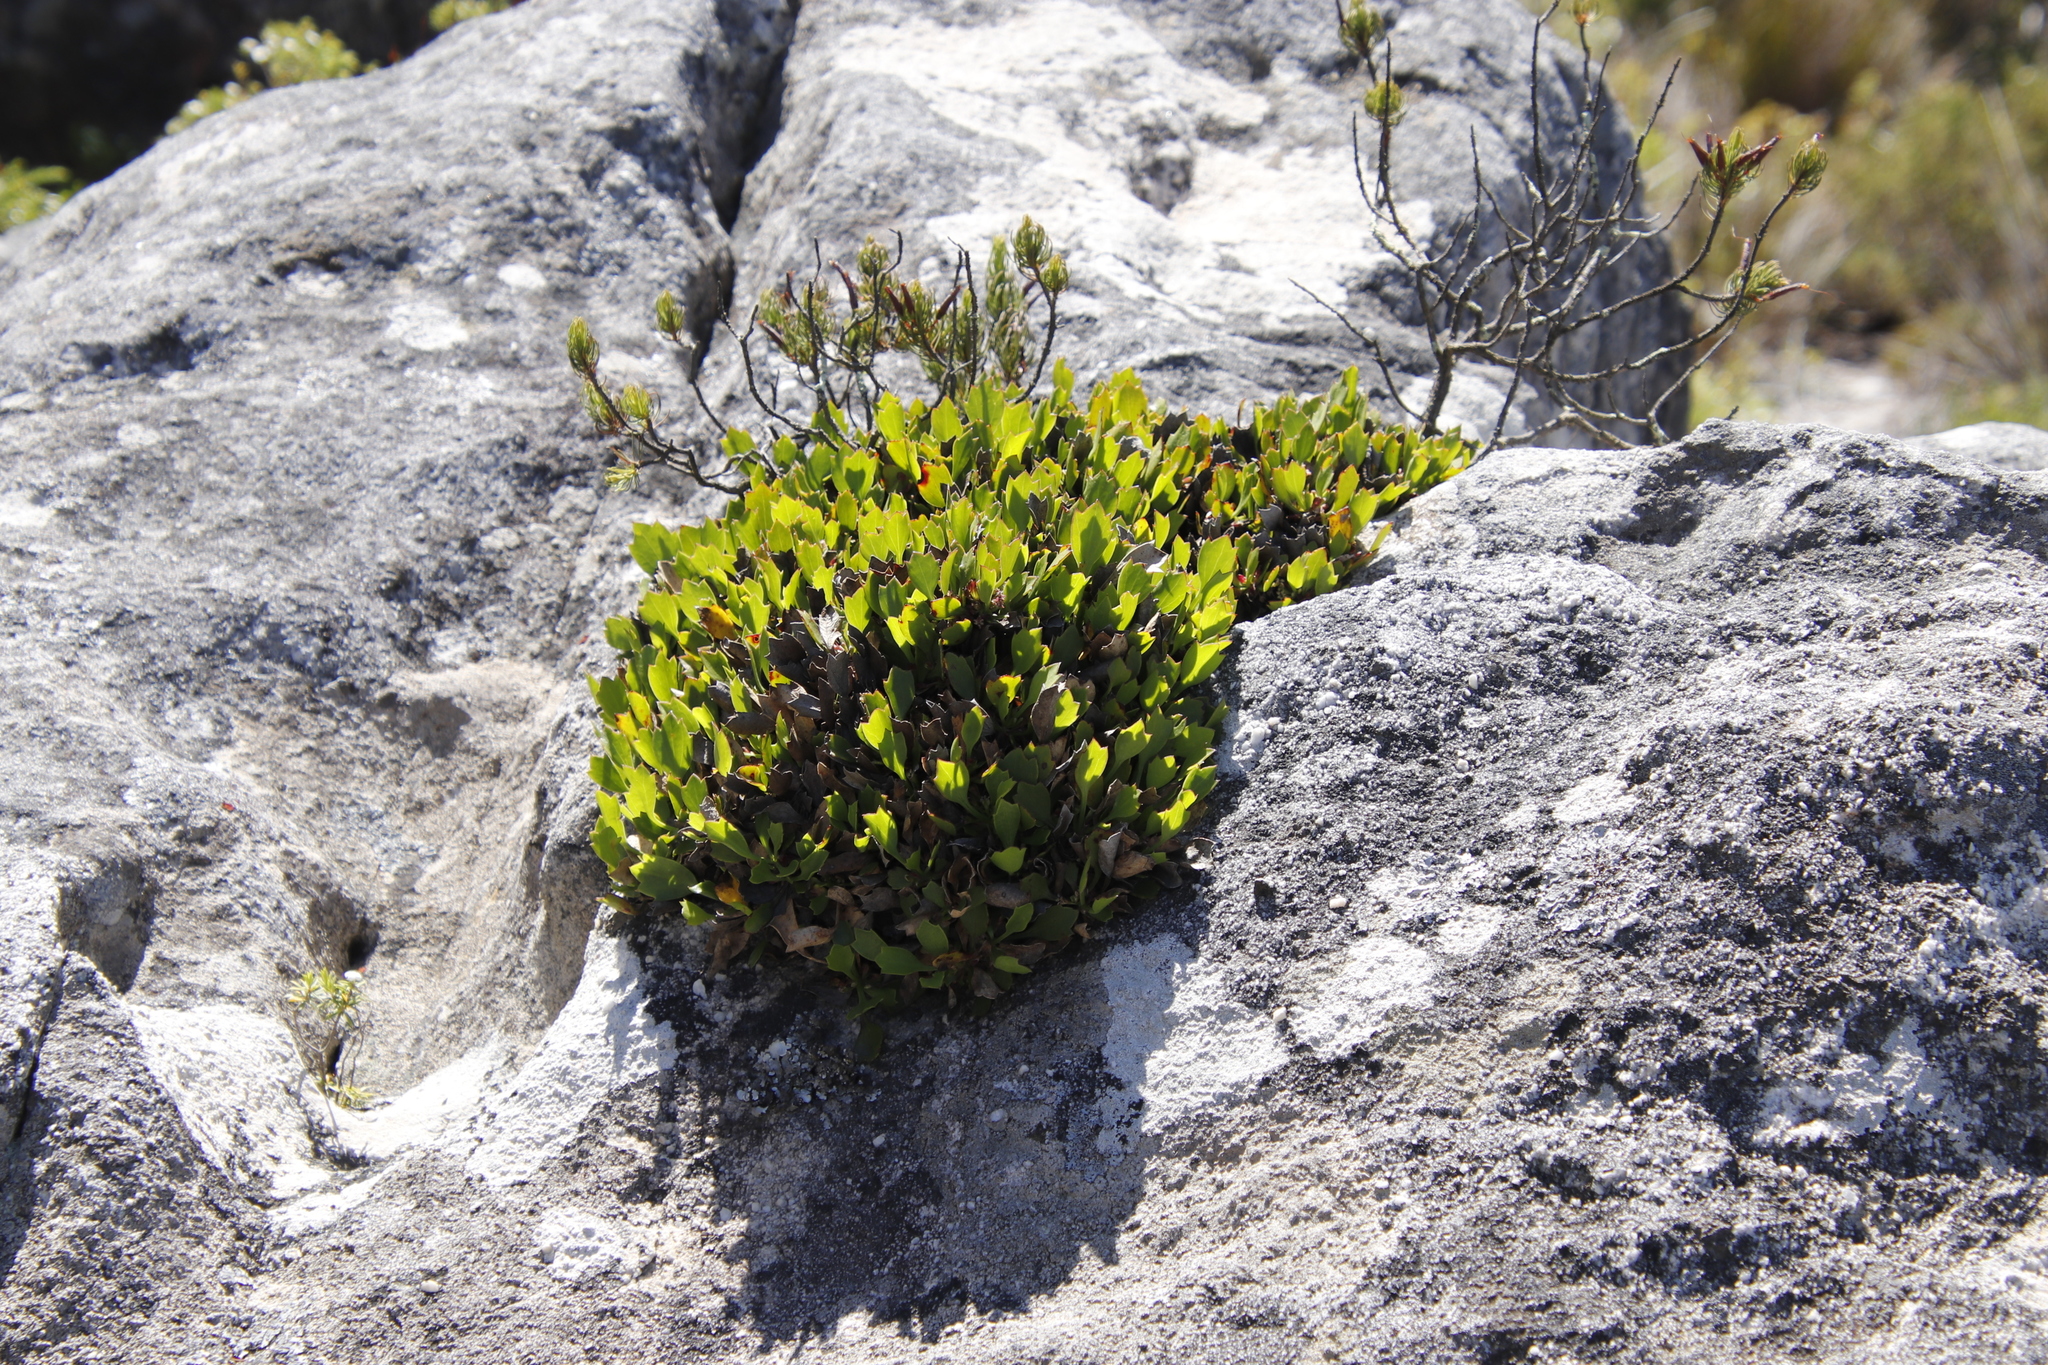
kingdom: Plantae
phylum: Tracheophyta
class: Magnoliopsida
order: Apiales
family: Apiaceae
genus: Centella
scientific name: Centella triloba
